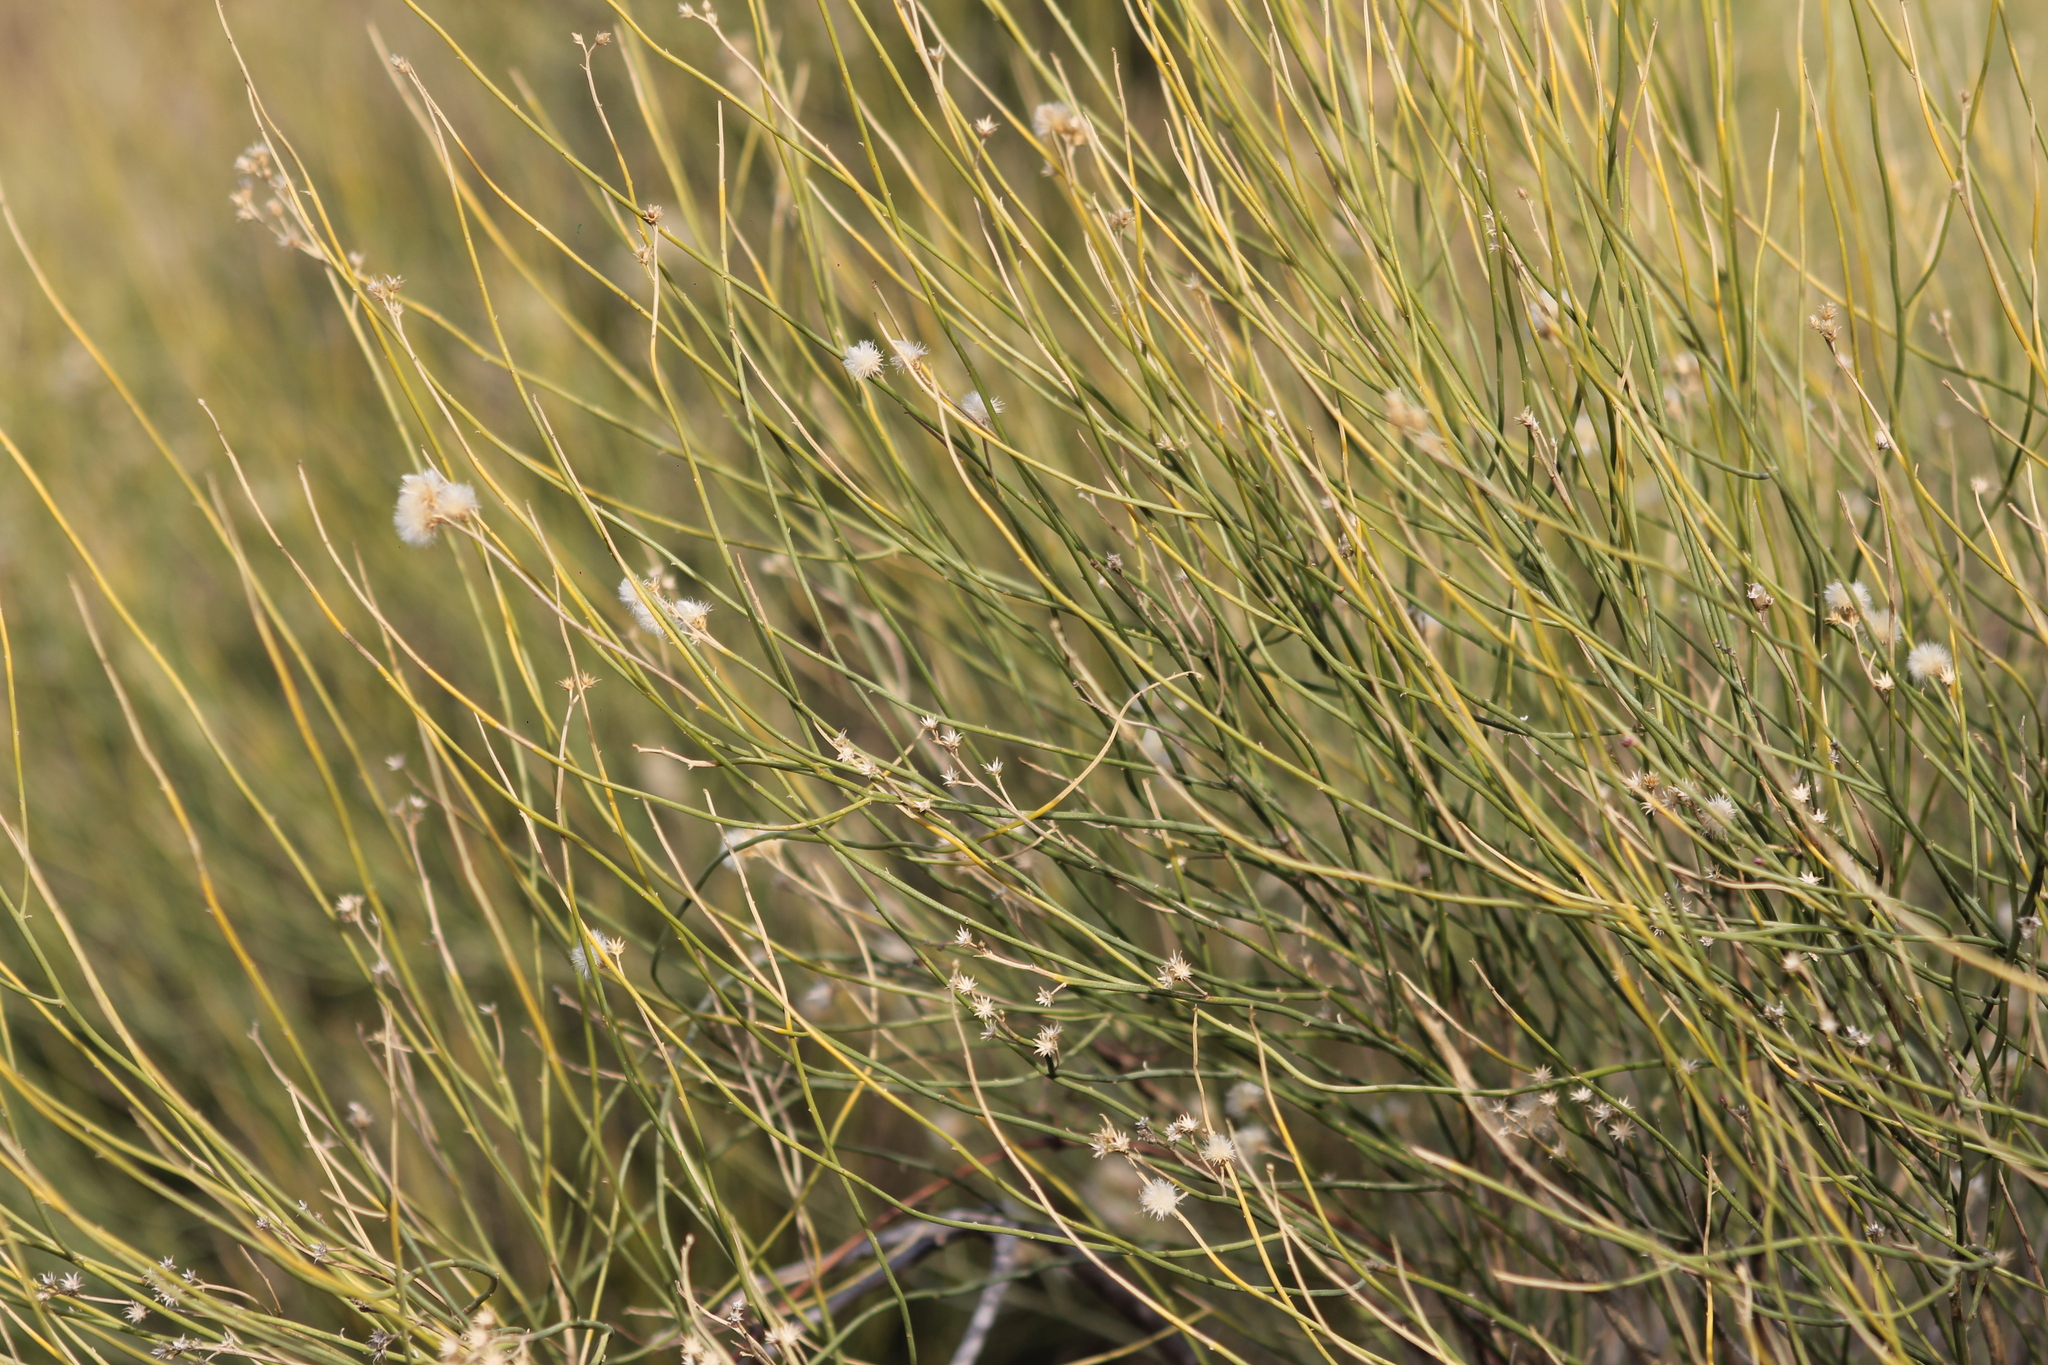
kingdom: Plantae
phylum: Tracheophyta
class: Magnoliopsida
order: Asterales
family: Asteraceae
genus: Pseudobaccharis
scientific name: Pseudobaccharis spartioides
